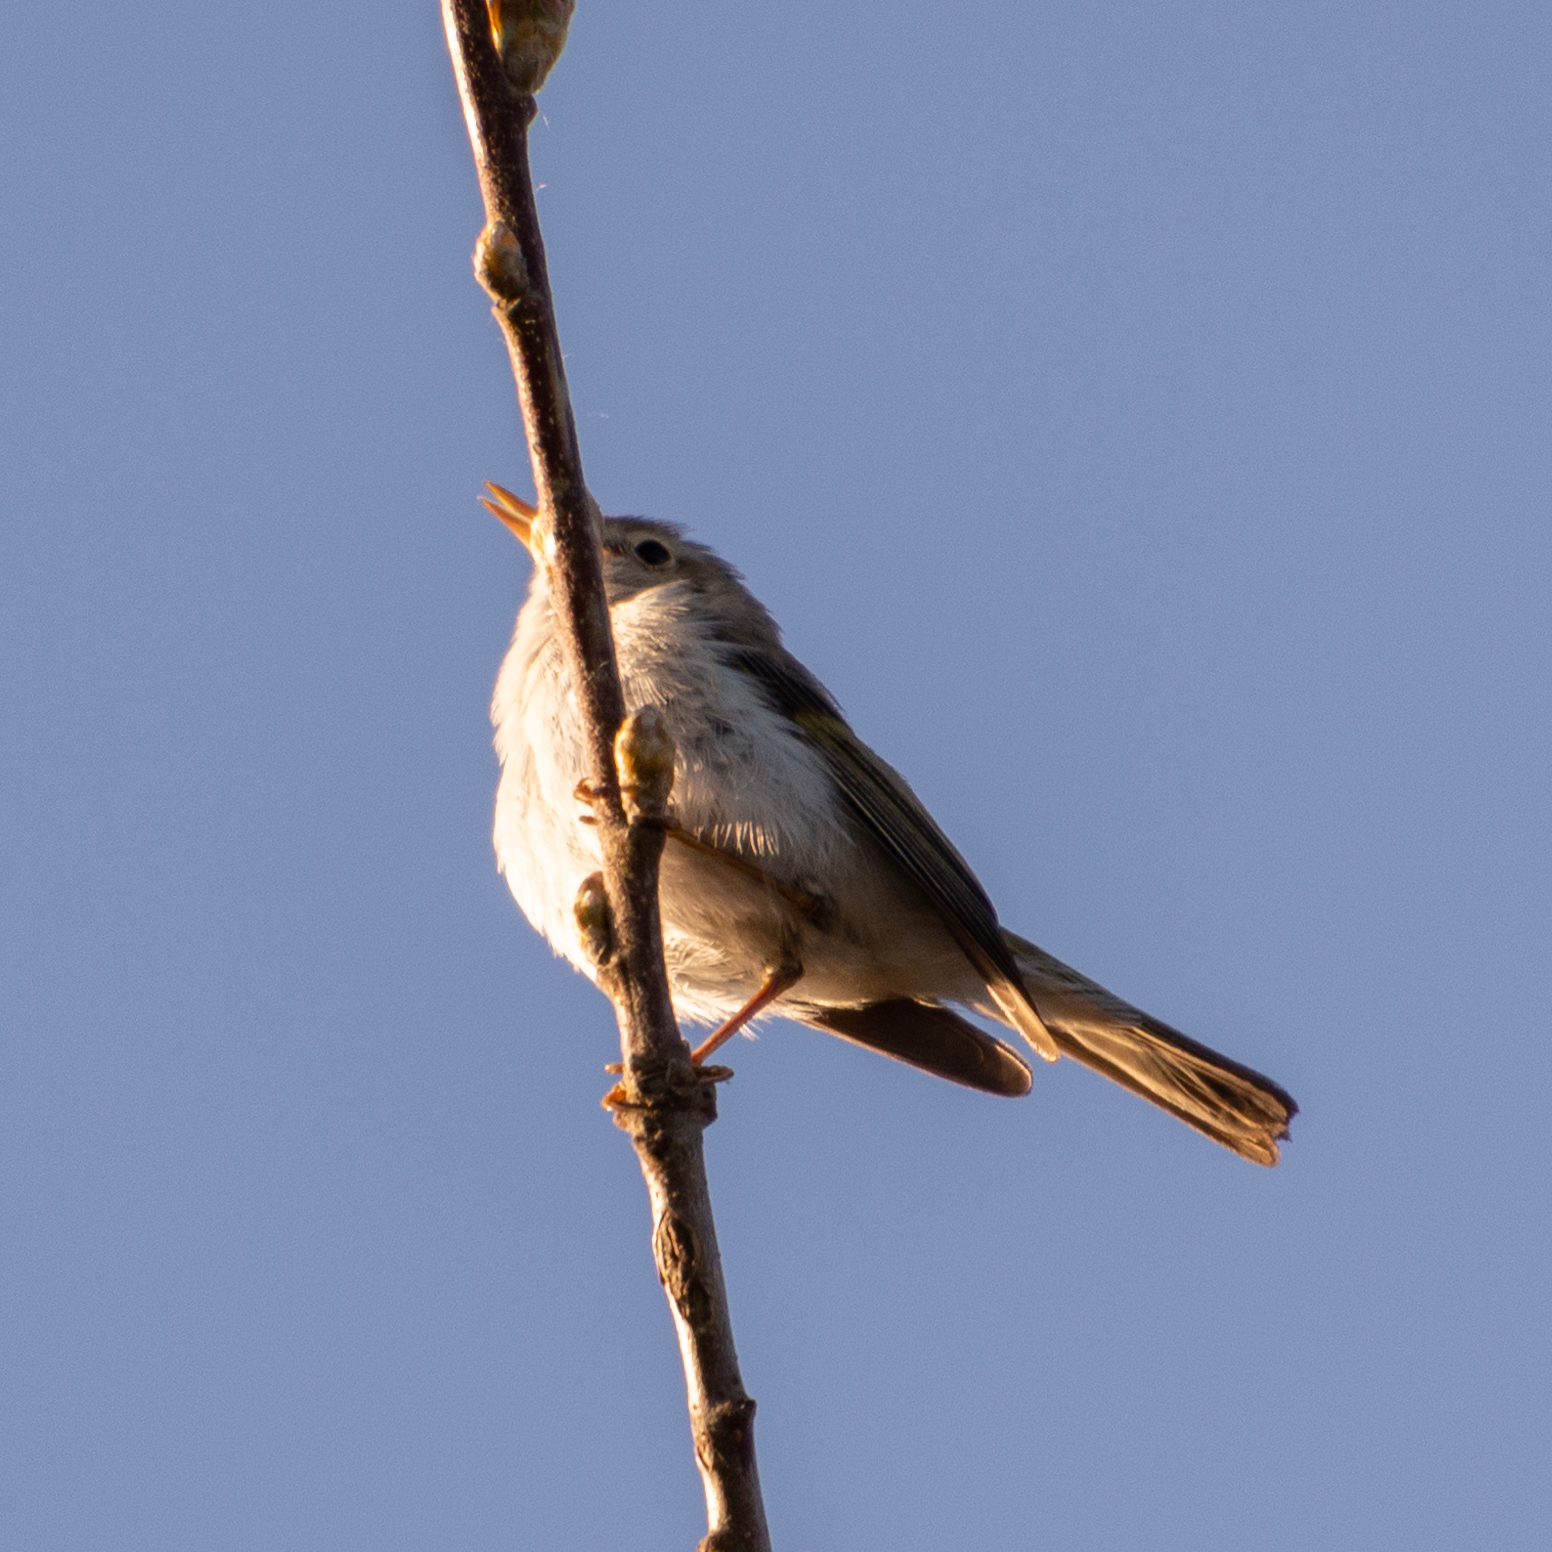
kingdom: Animalia
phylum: Chordata
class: Aves
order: Passeriformes
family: Phylloscopidae
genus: Phylloscopus
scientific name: Phylloscopus bonelli
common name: Western bonelli's warbler
